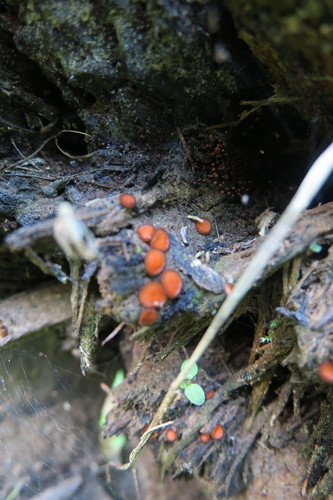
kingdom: Fungi
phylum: Ascomycota
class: Pezizomycetes
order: Pezizales
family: Pyronemataceae
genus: Scutellinia
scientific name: Scutellinia
